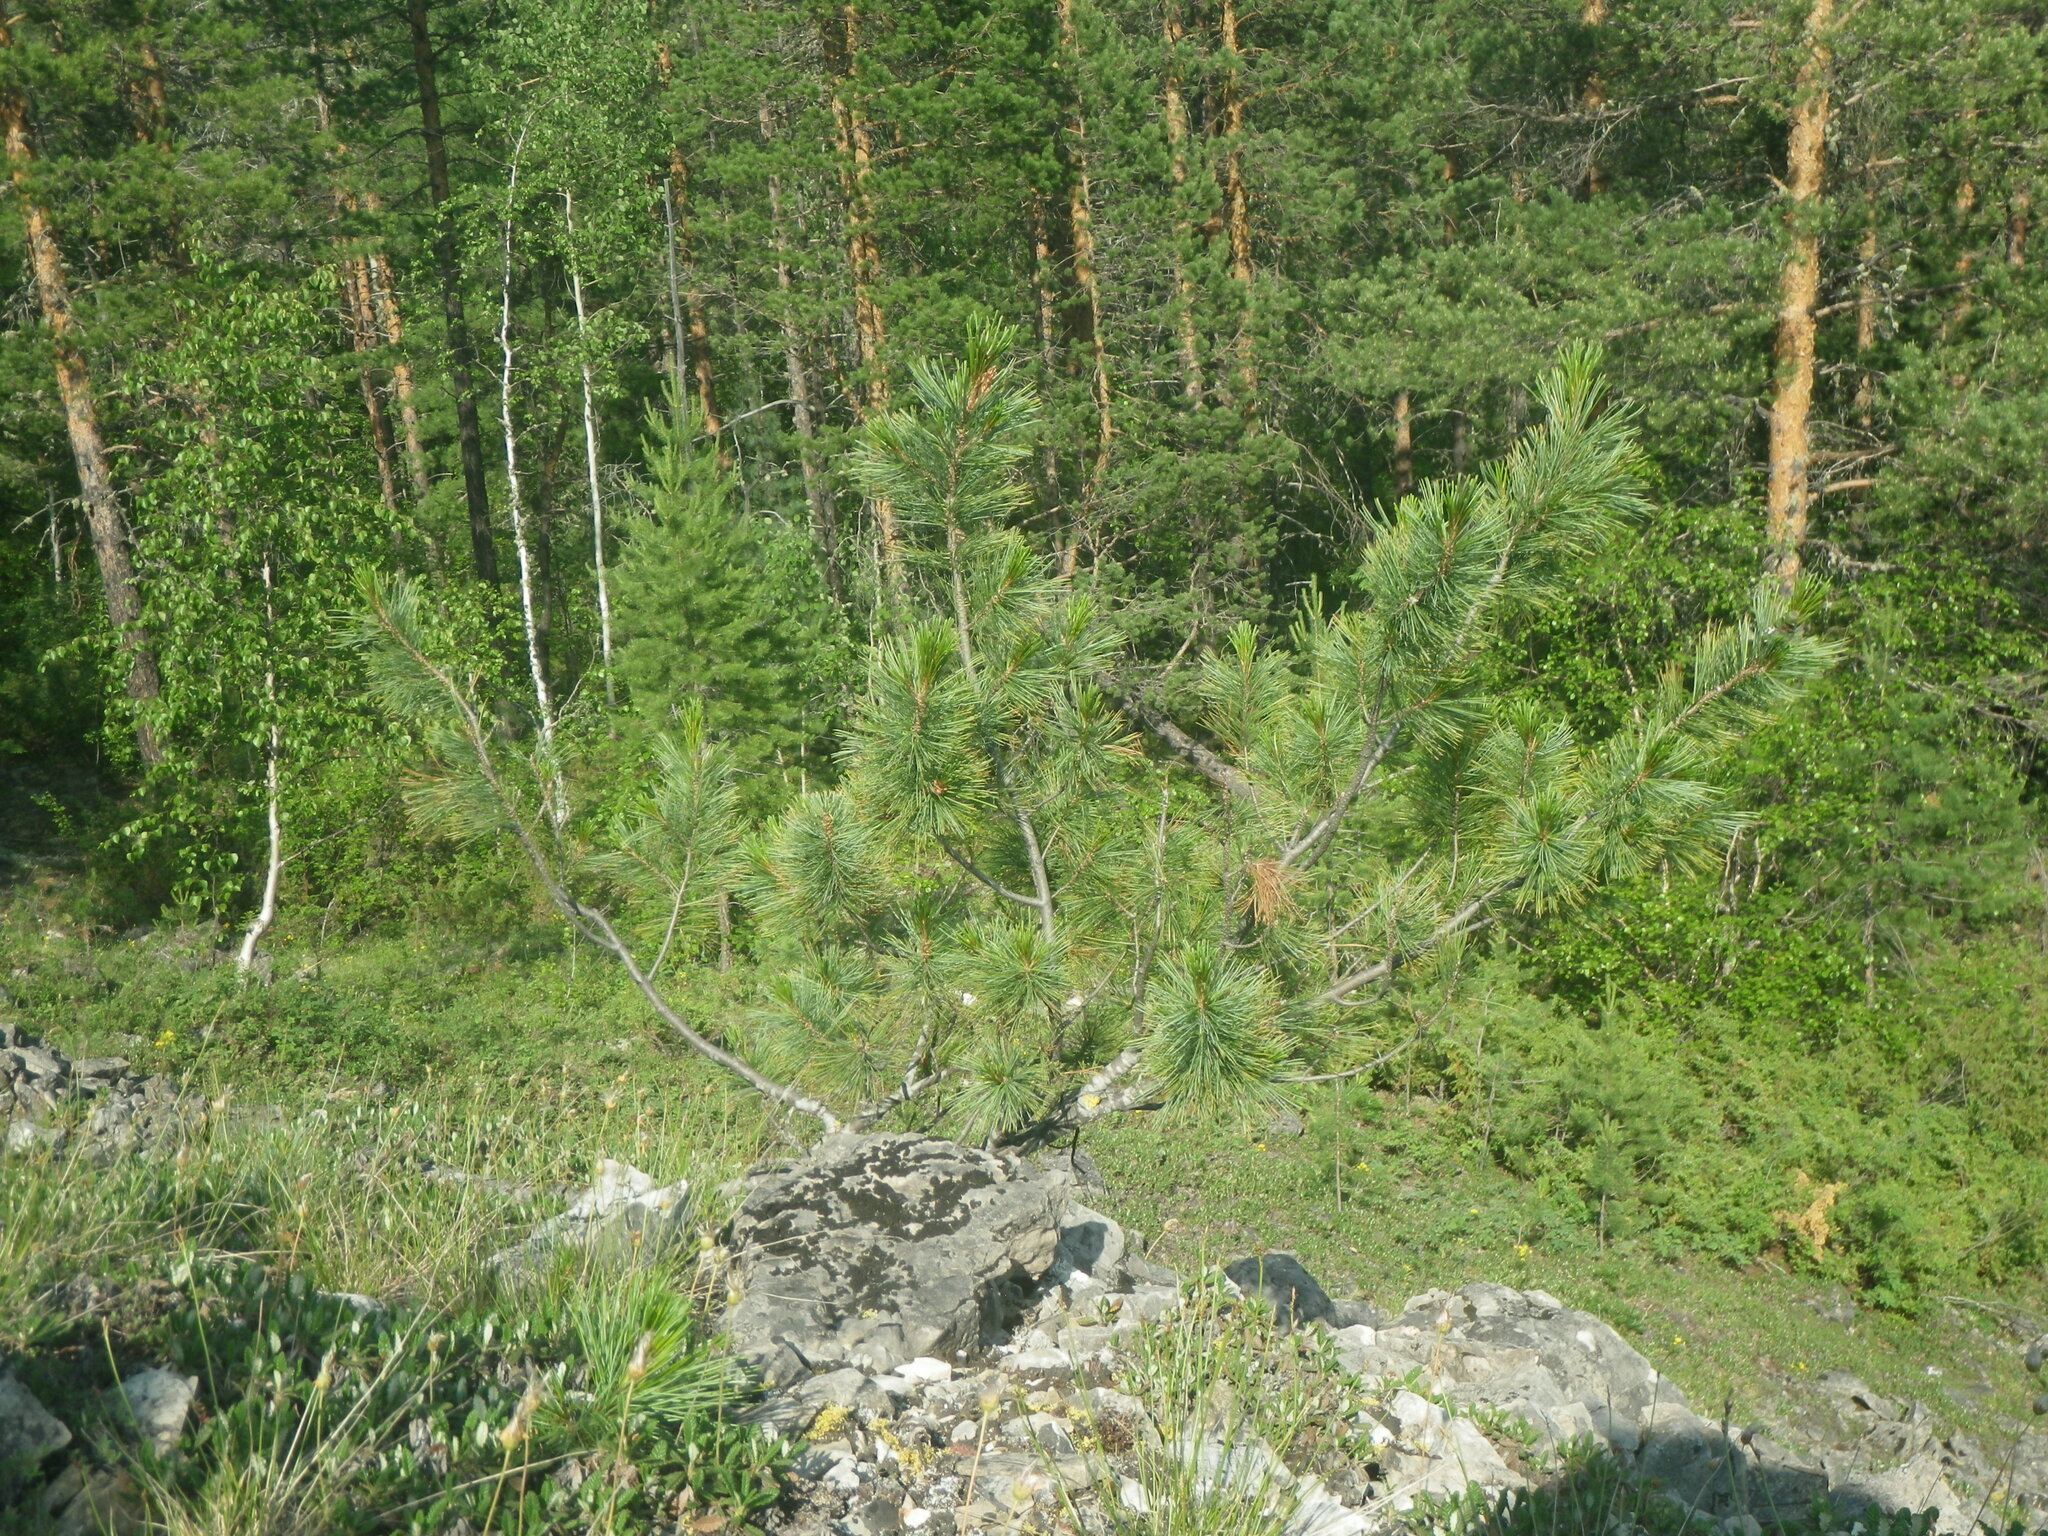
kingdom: Plantae
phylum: Tracheophyta
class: Pinopsida
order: Pinales
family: Pinaceae
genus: Pinus
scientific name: Pinus sylvestris
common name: Scots pine
